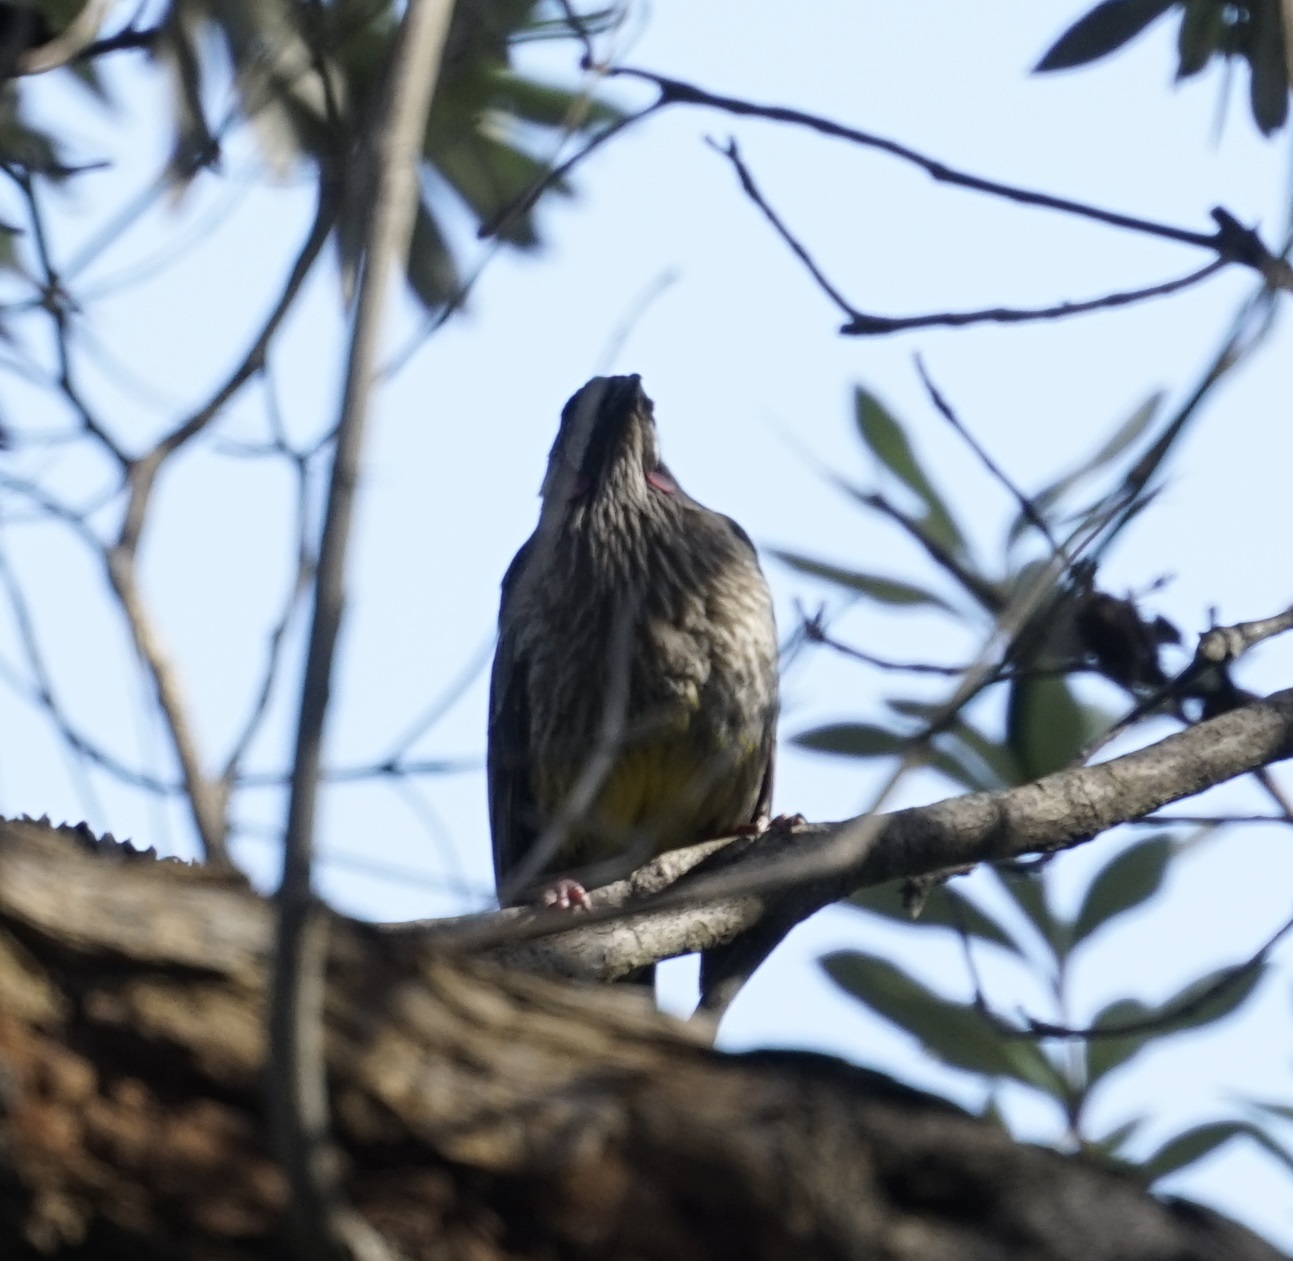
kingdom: Animalia
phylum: Chordata
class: Aves
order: Passeriformes
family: Meliphagidae
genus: Anthochaera
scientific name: Anthochaera carunculata
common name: Red wattlebird
